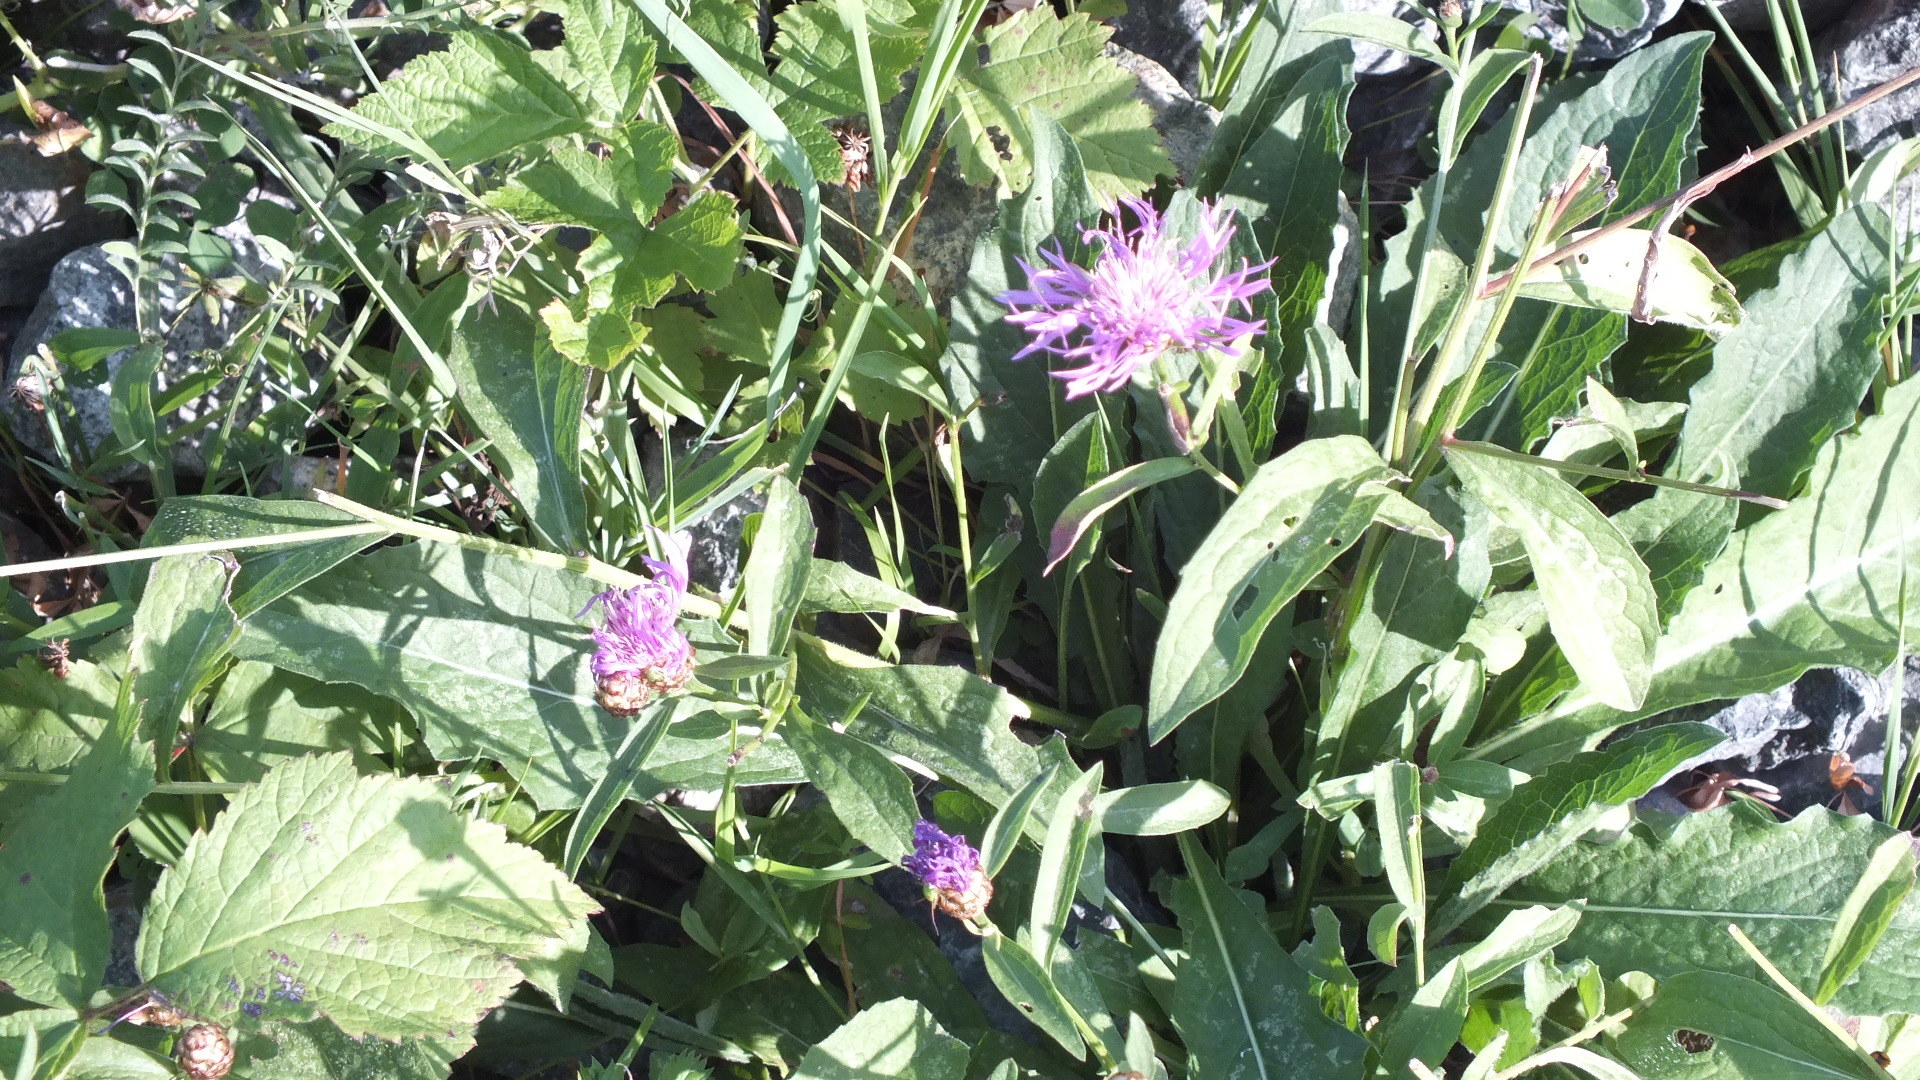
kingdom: Plantae
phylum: Tracheophyta
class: Magnoliopsida
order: Asterales
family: Asteraceae
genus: Centaurea
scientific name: Centaurea jacea
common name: Brown knapweed
